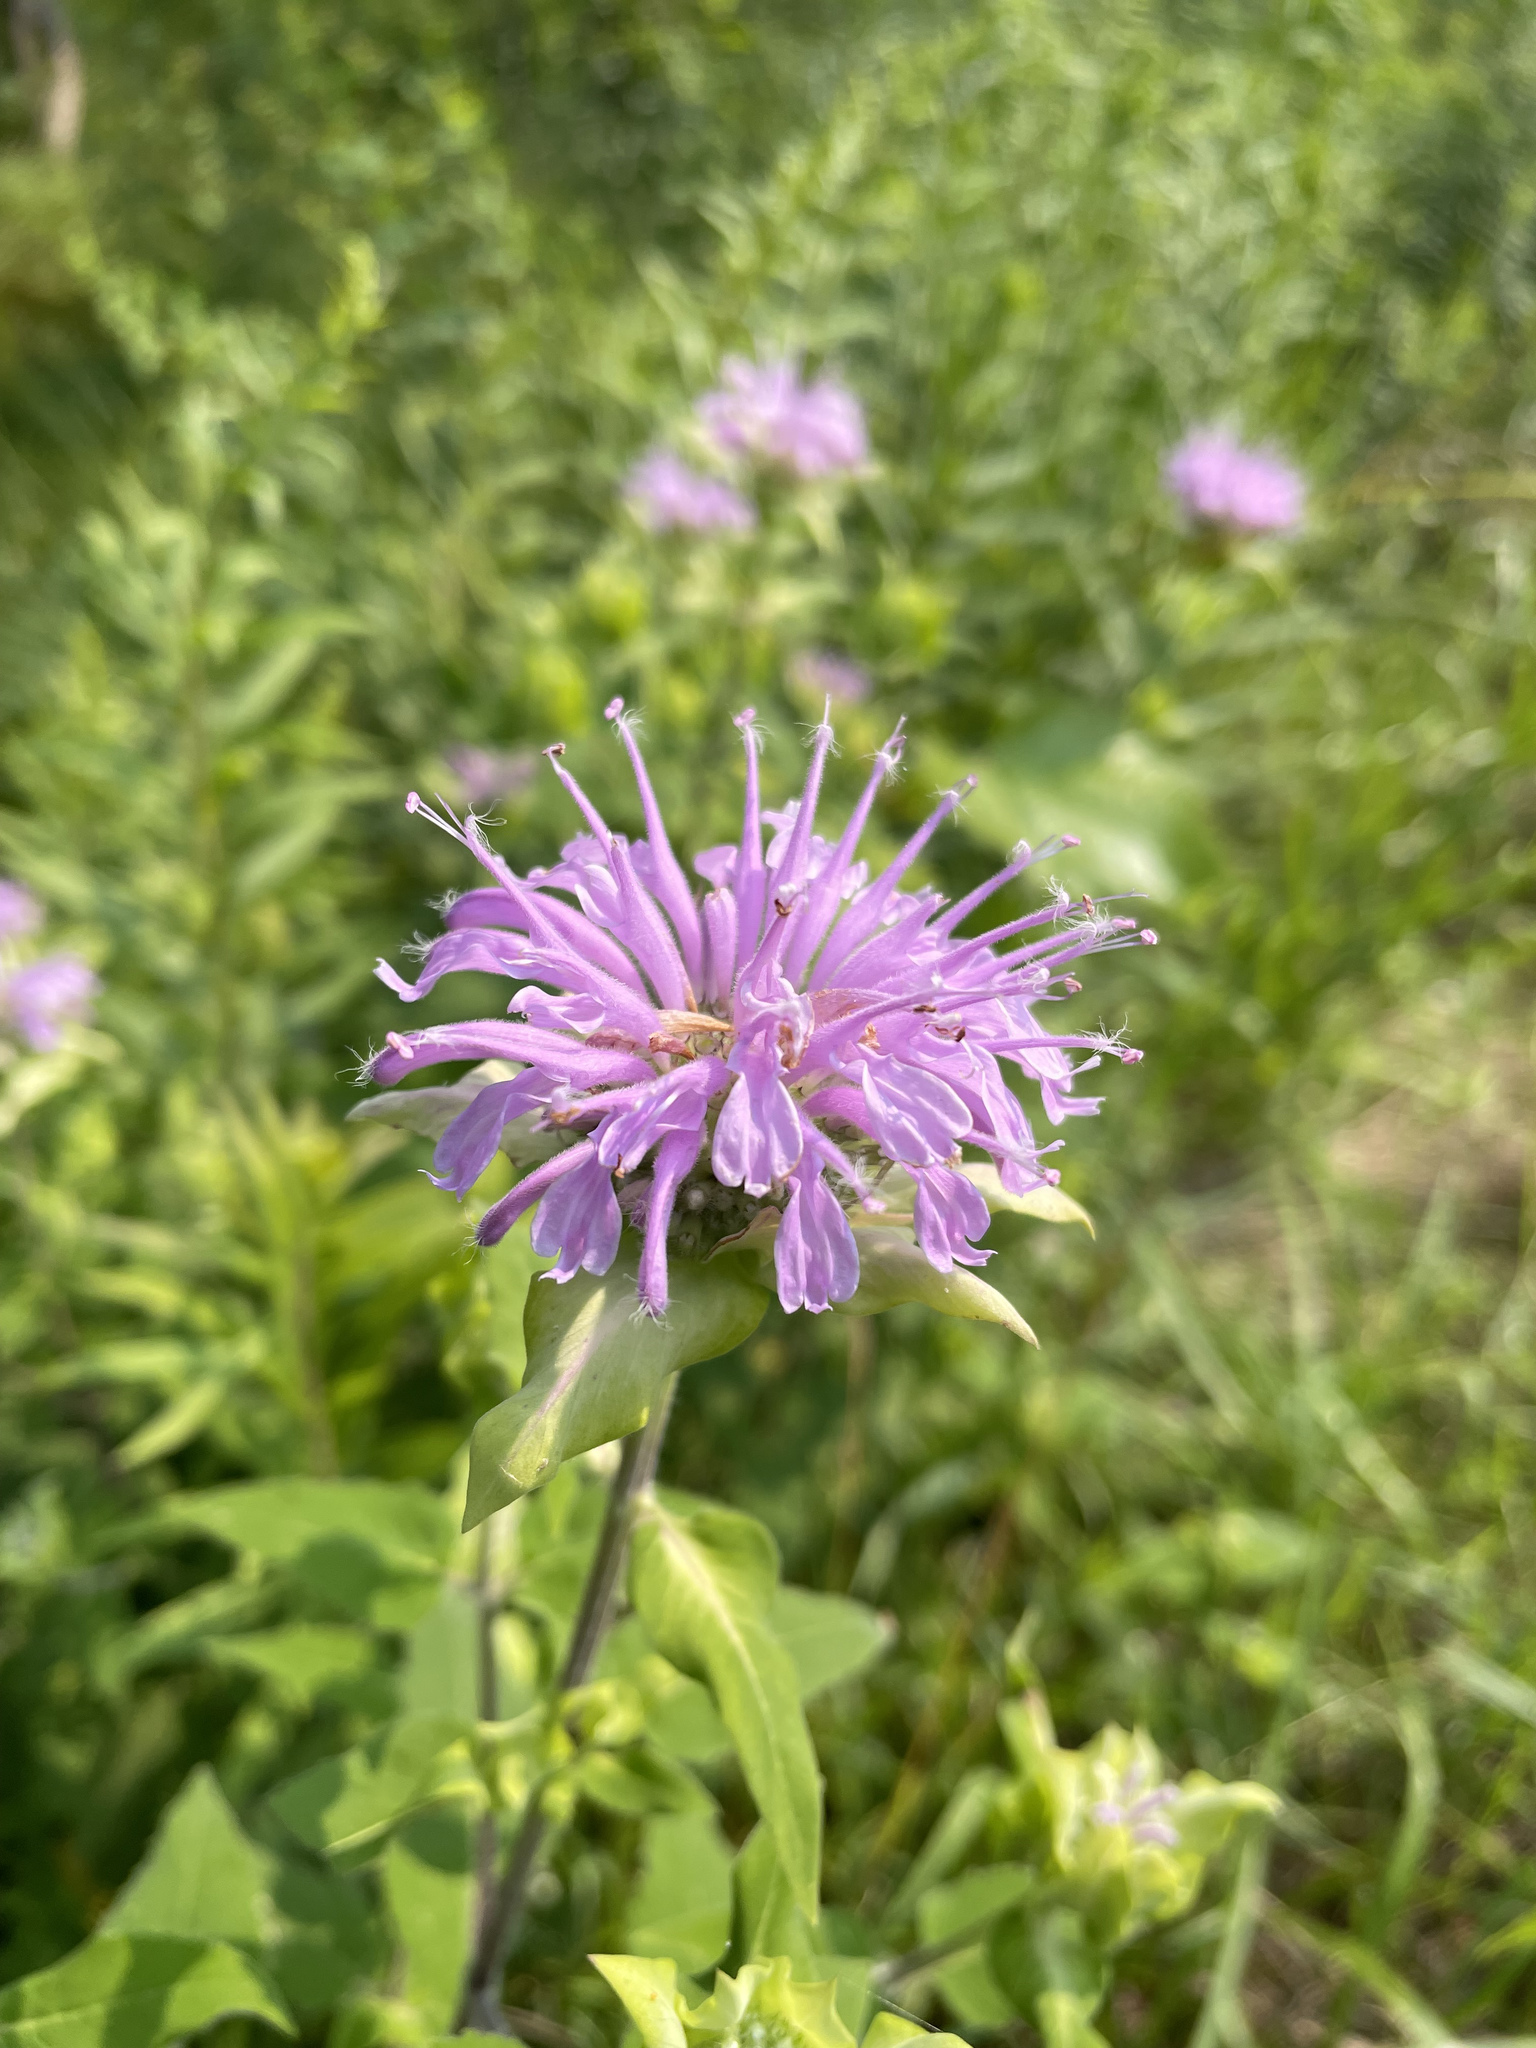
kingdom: Plantae
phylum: Tracheophyta
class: Magnoliopsida
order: Lamiales
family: Lamiaceae
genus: Monarda
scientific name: Monarda fistulosa
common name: Purple beebalm
